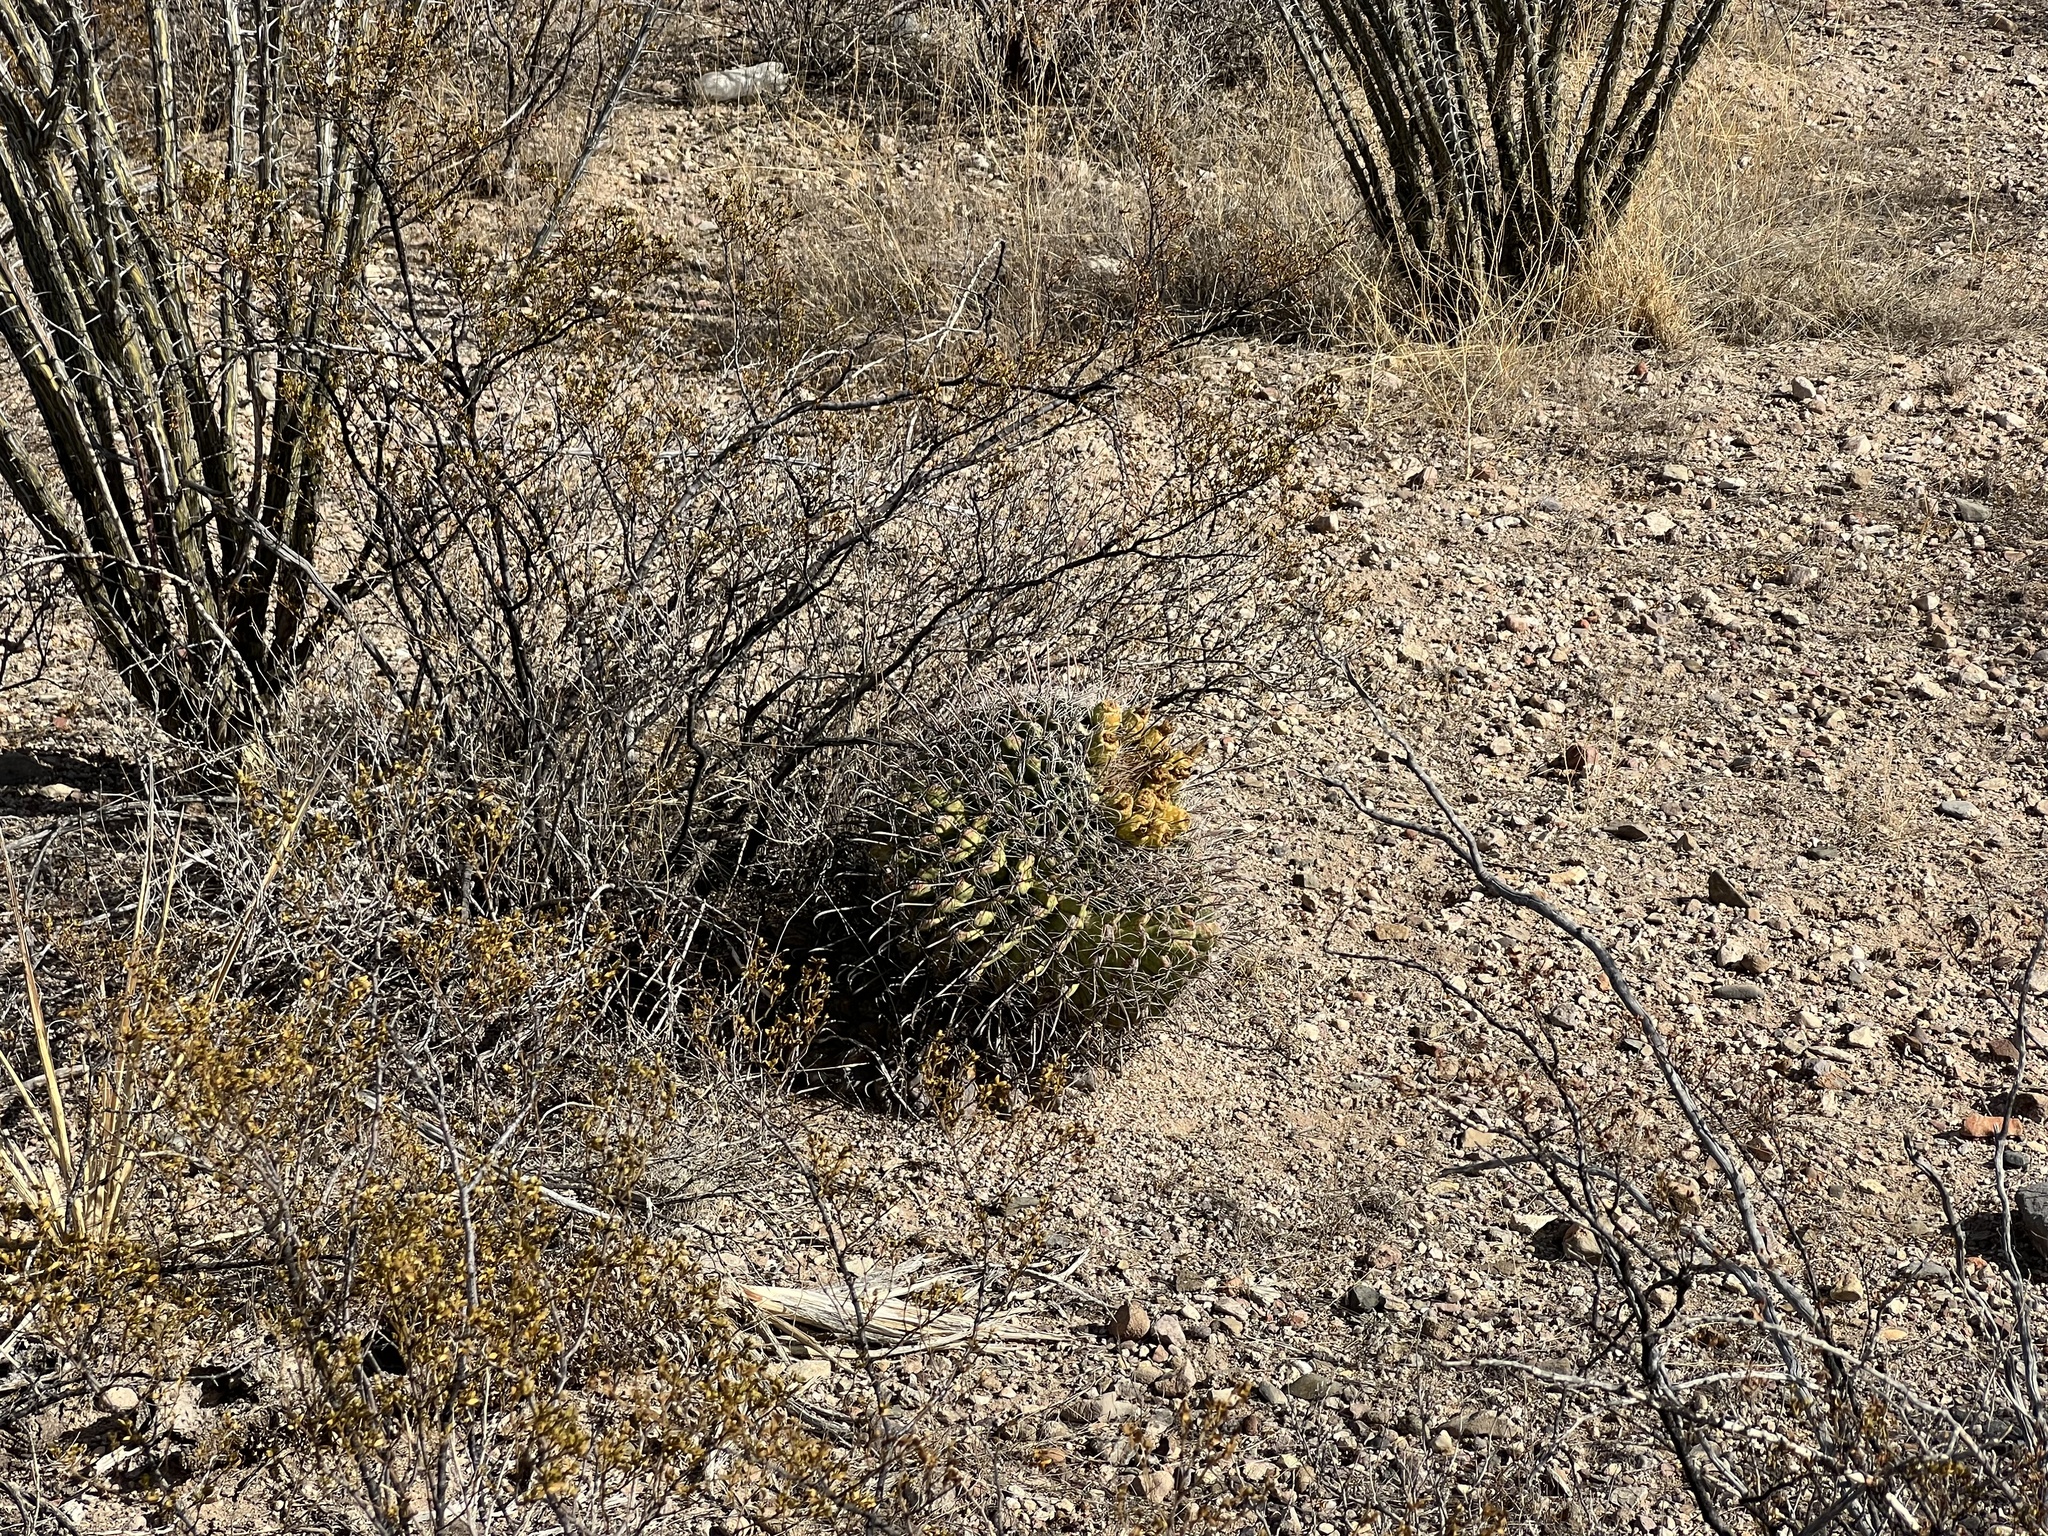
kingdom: Plantae
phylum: Tracheophyta
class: Magnoliopsida
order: Caryophyllales
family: Cactaceae
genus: Ferocactus
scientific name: Ferocactus wislizeni
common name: Candy barrel cactus
